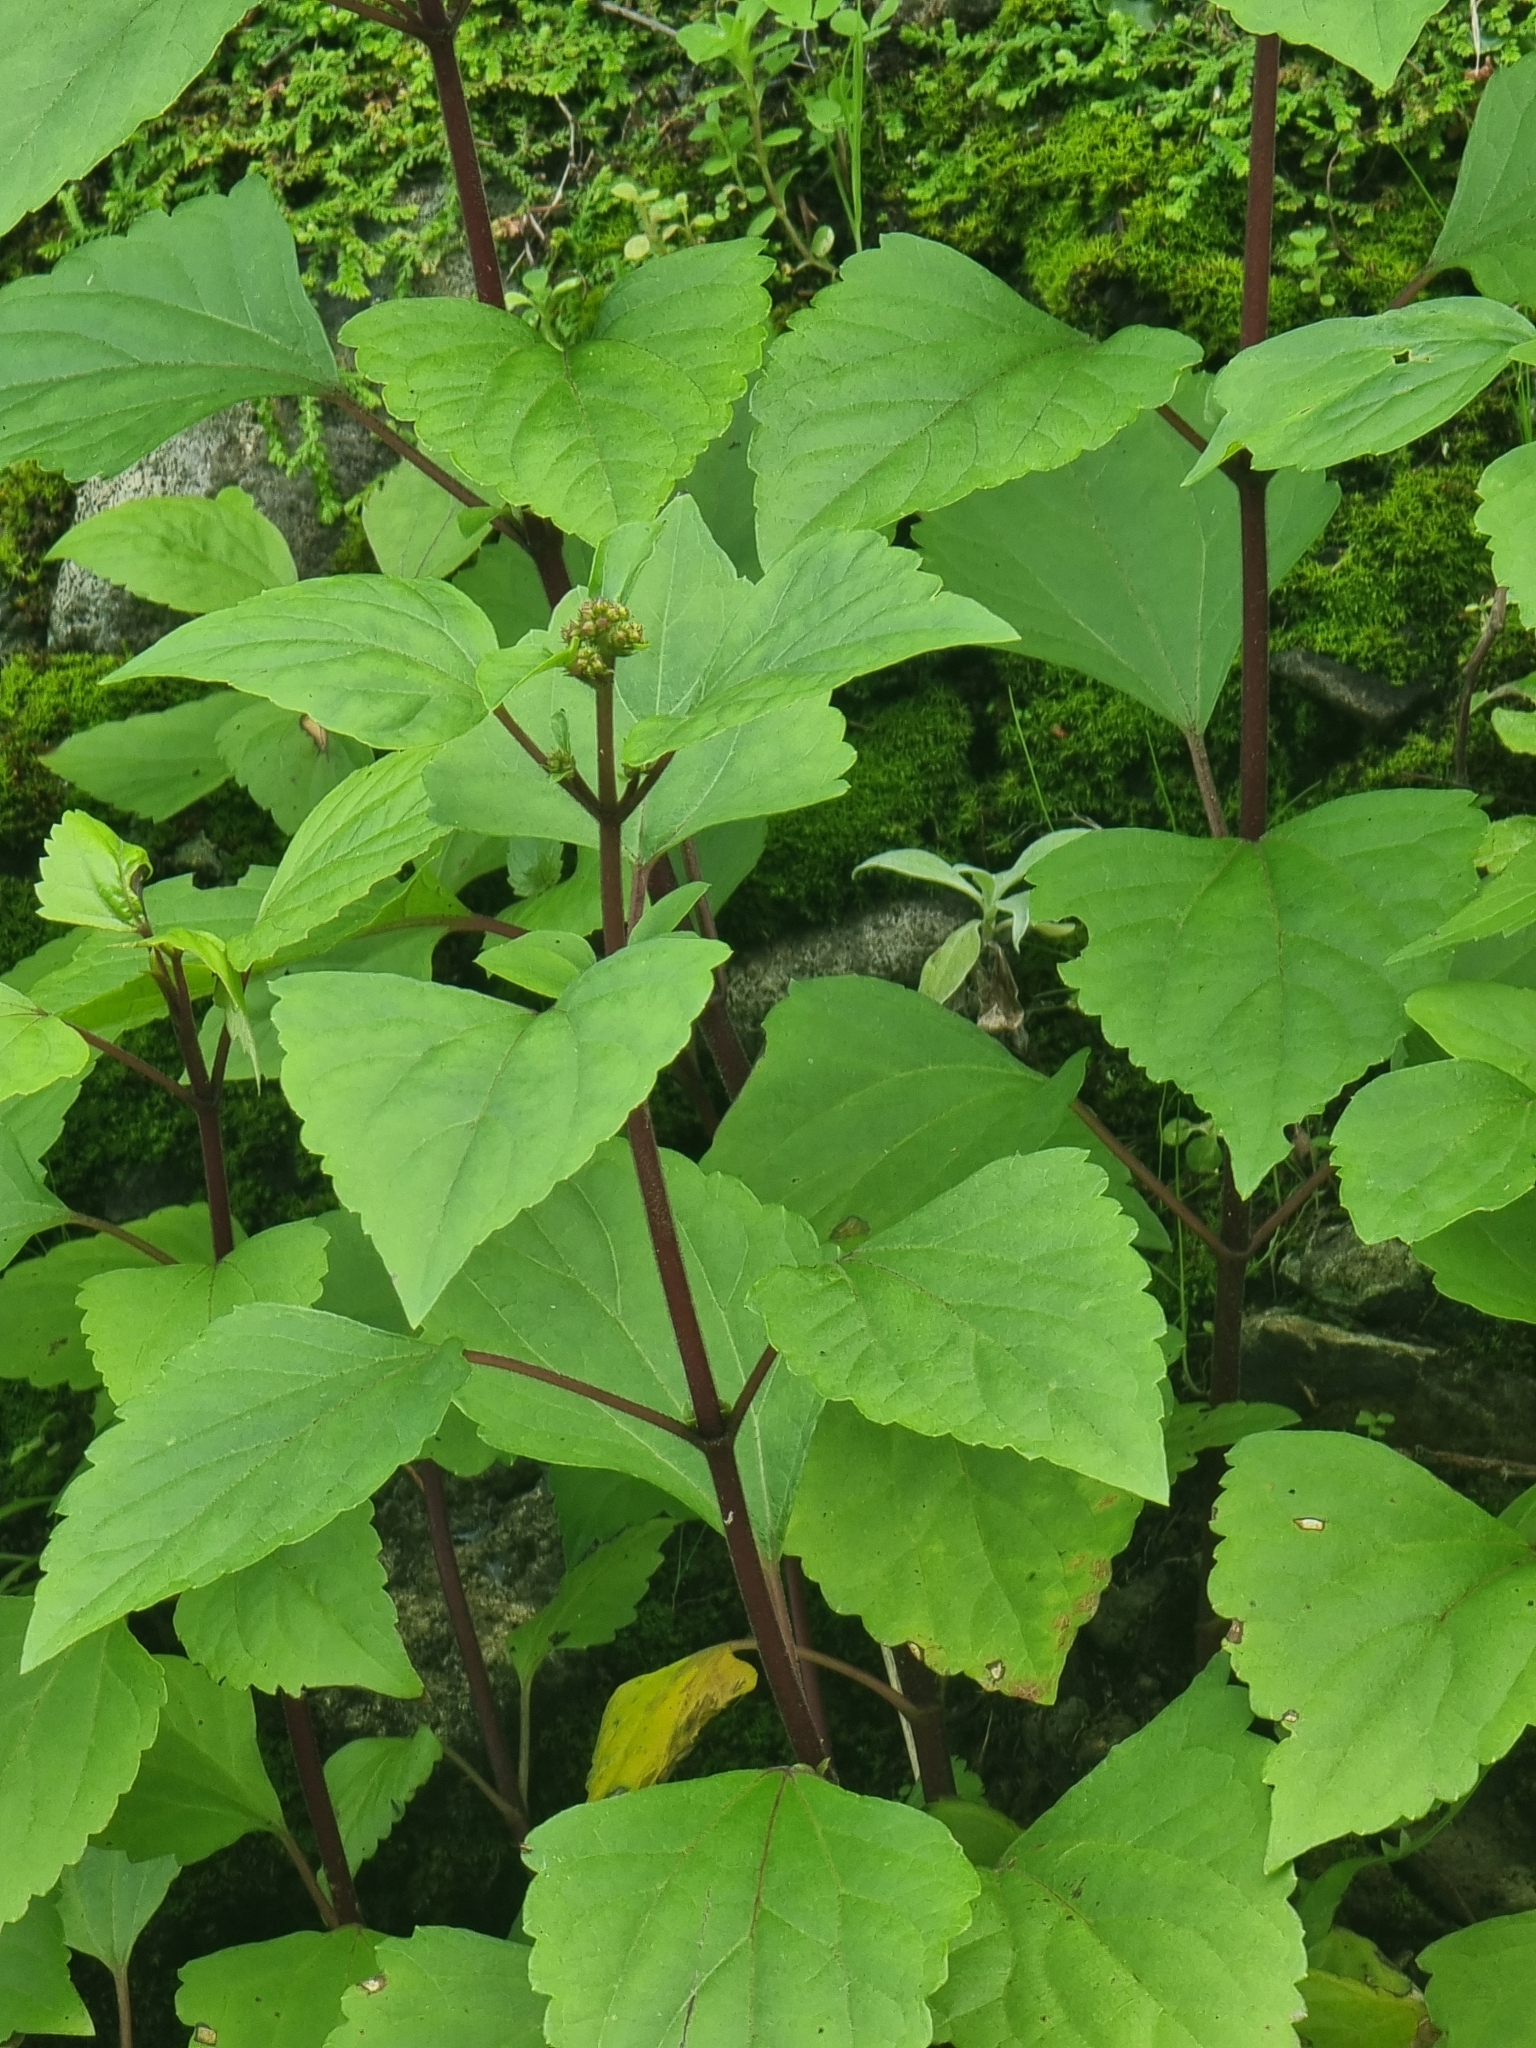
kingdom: Plantae
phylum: Tracheophyta
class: Magnoliopsida
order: Asterales
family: Asteraceae
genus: Ageratina
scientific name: Ageratina adenophora
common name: Sticky snakeroot
